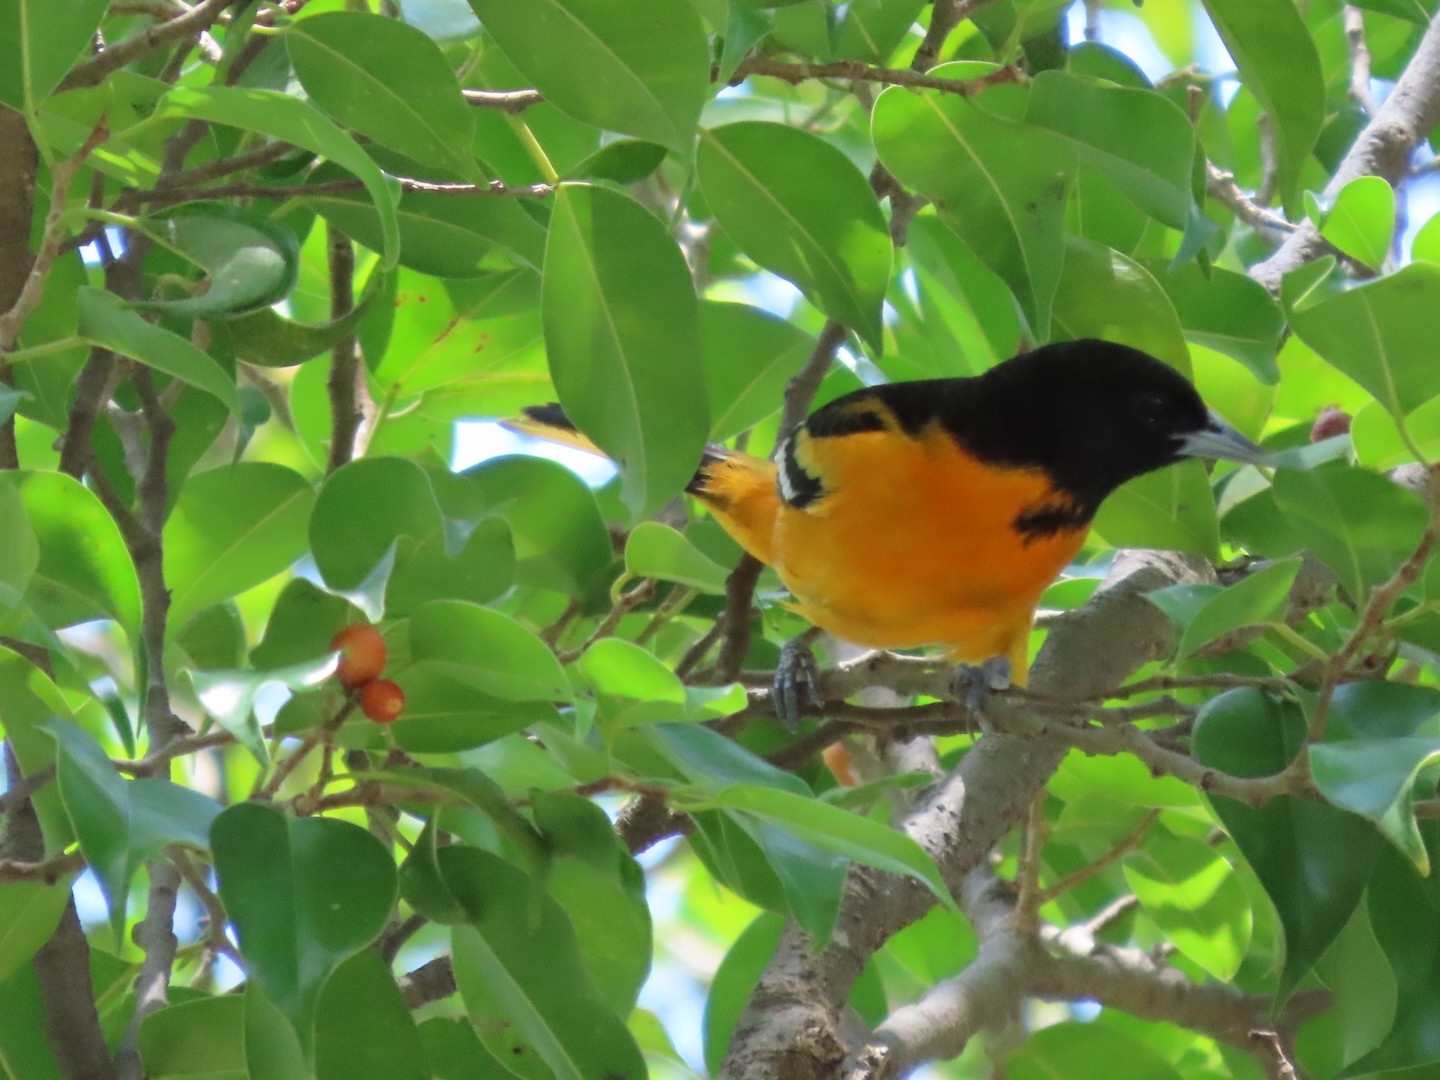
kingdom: Animalia
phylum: Chordata
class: Aves
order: Passeriformes
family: Icteridae
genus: Icterus
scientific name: Icterus galbula
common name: Baltimore oriole
